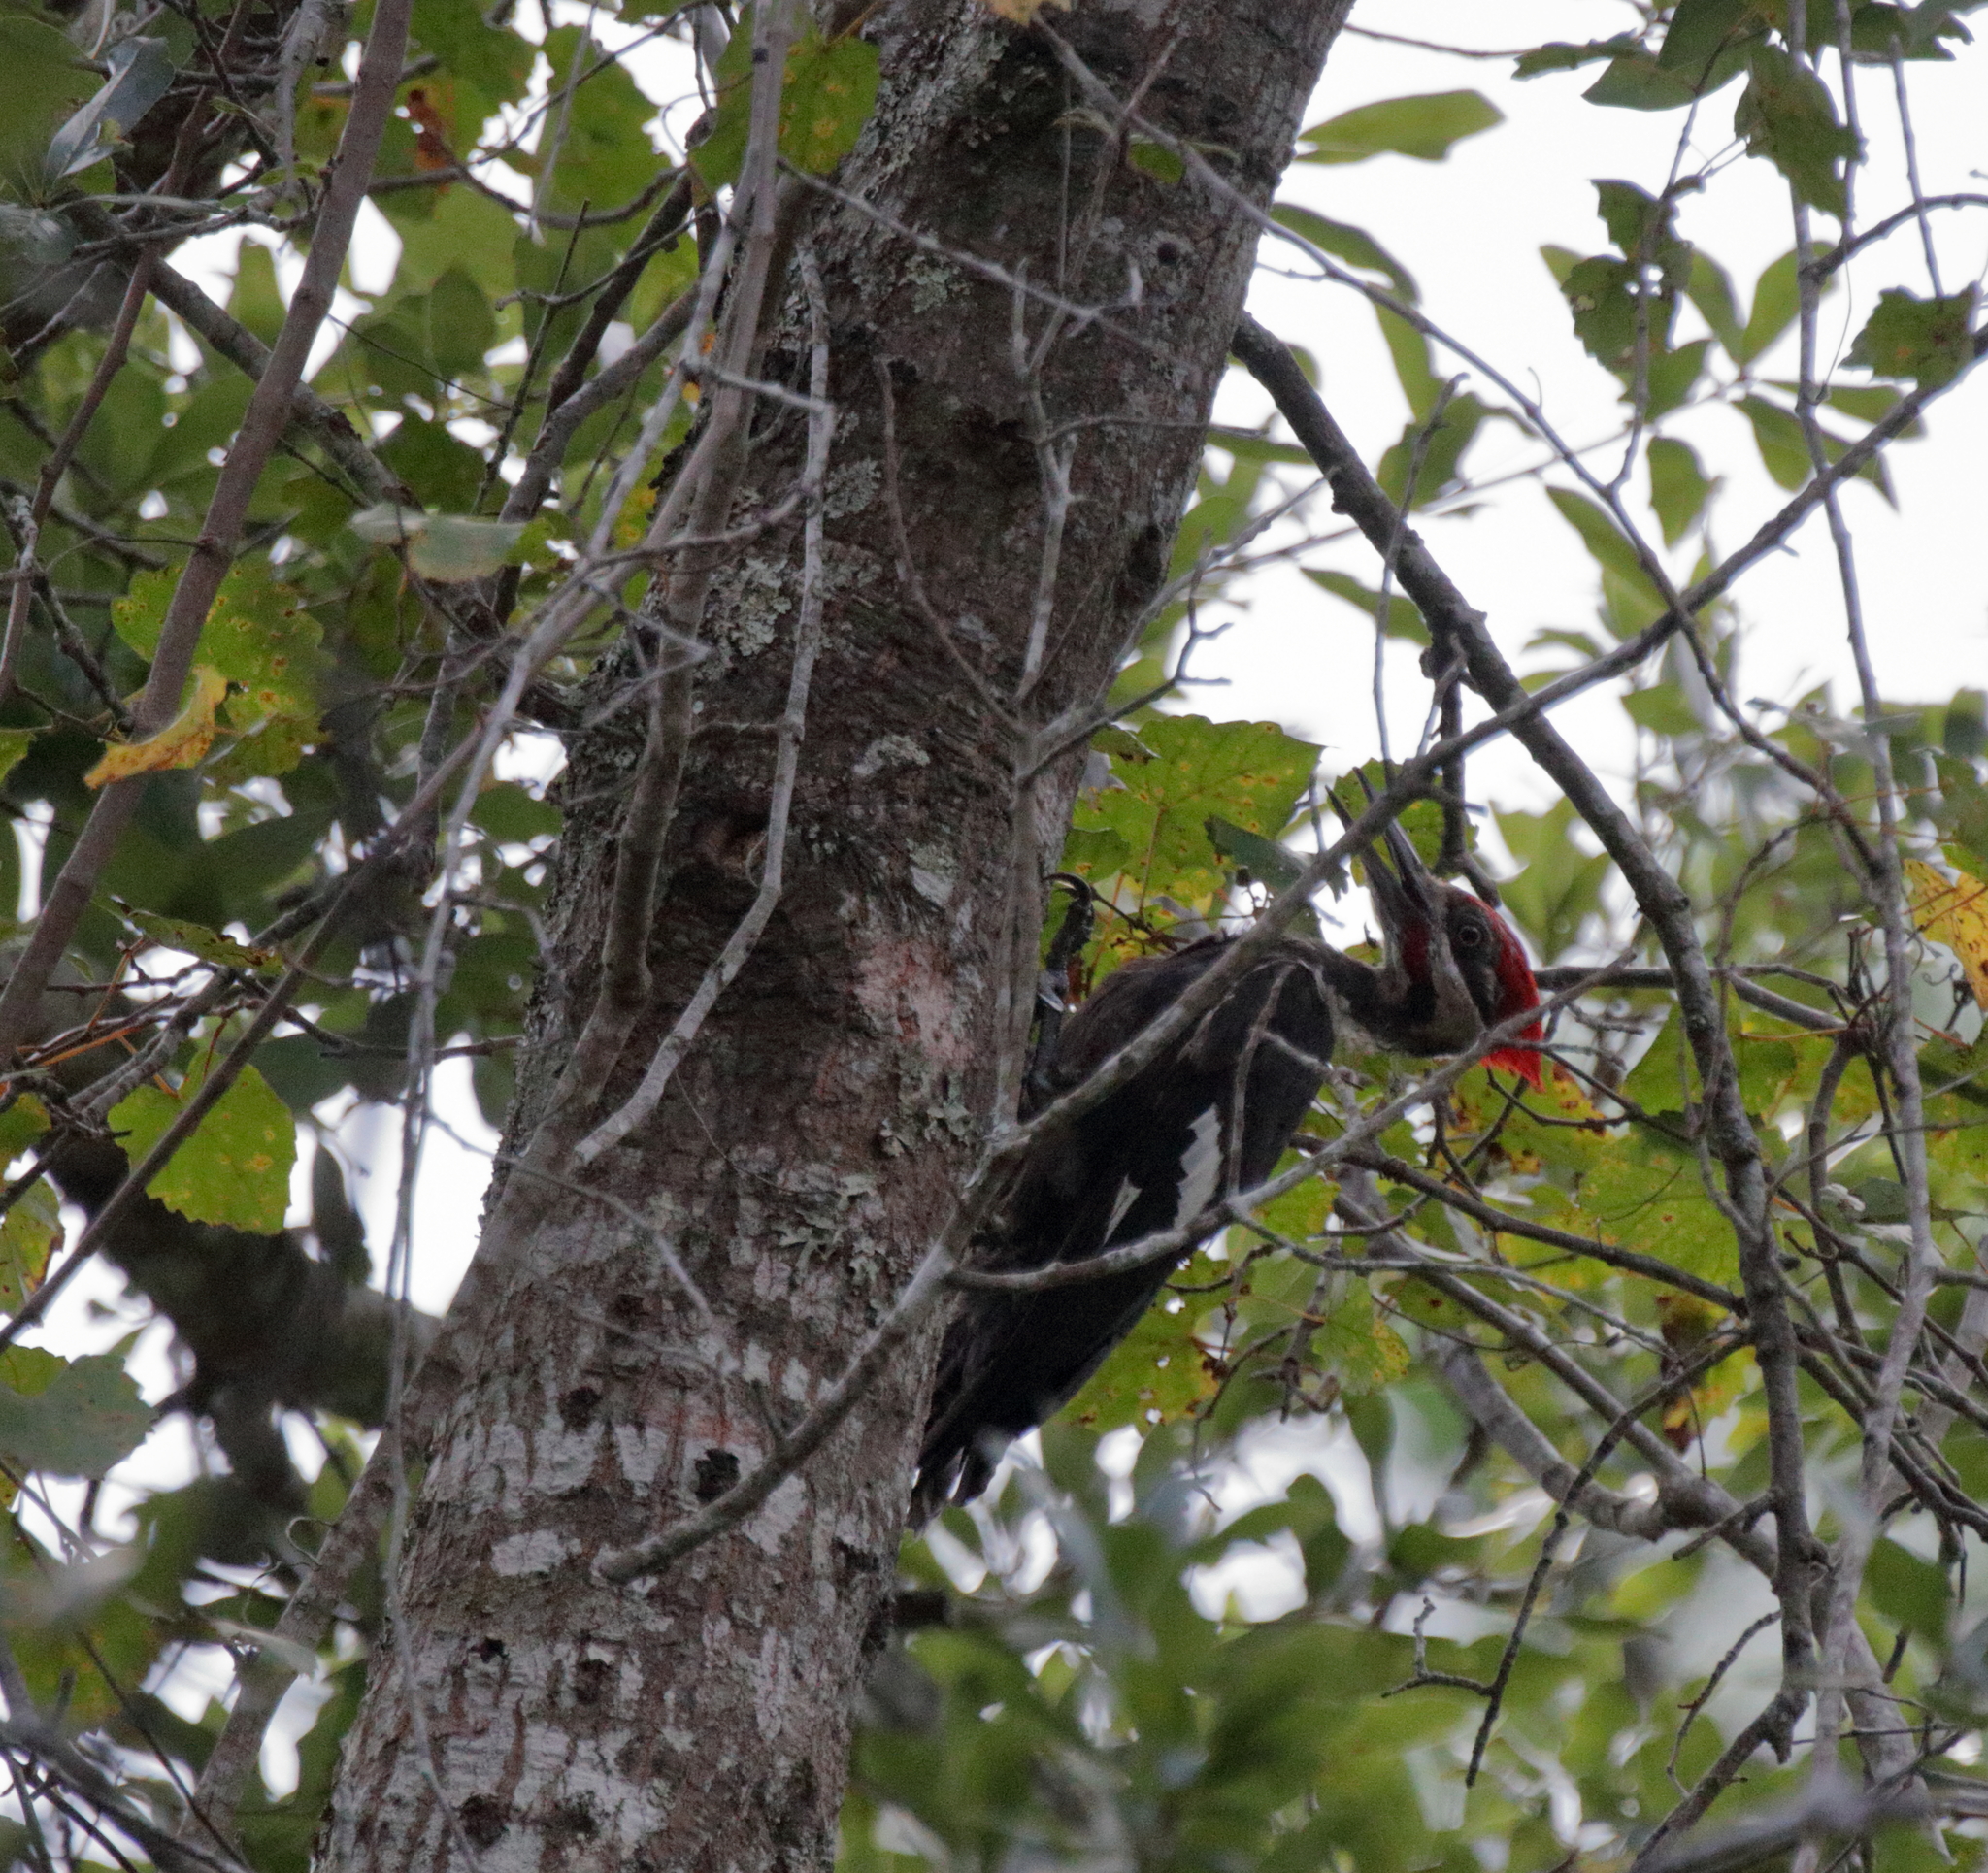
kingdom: Animalia
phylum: Chordata
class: Aves
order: Piciformes
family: Picidae
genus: Dryocopus
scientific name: Dryocopus pileatus
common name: Pileated woodpecker
